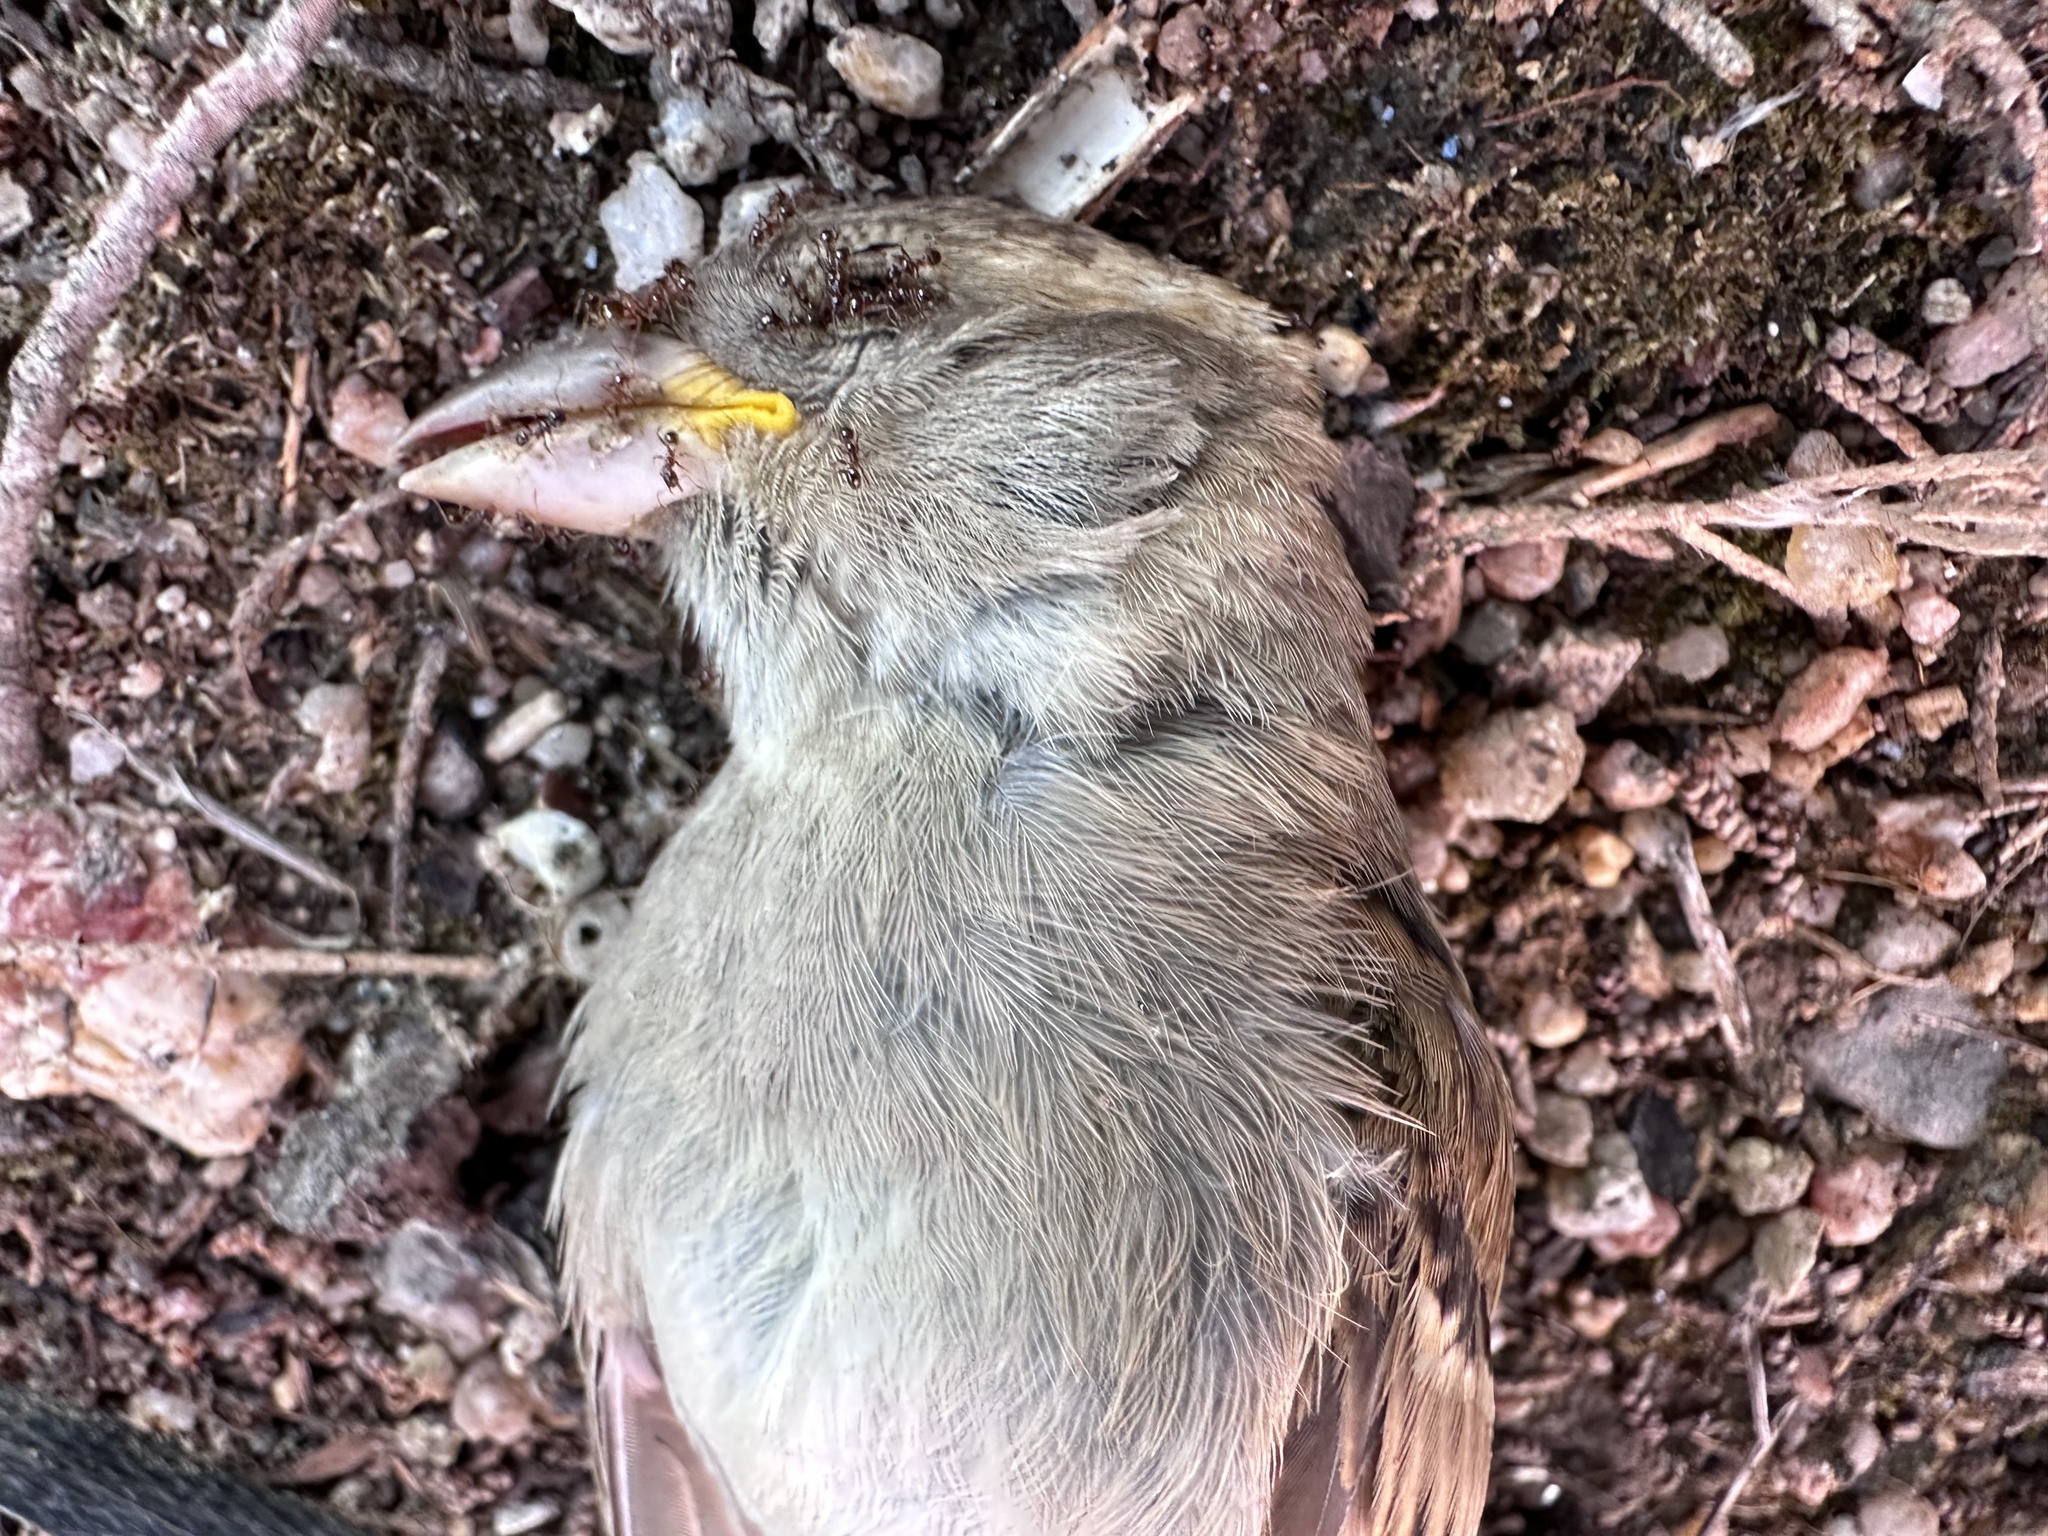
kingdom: Animalia
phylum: Chordata
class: Aves
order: Passeriformes
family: Passeridae
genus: Passer
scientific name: Passer domesticus
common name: House sparrow
